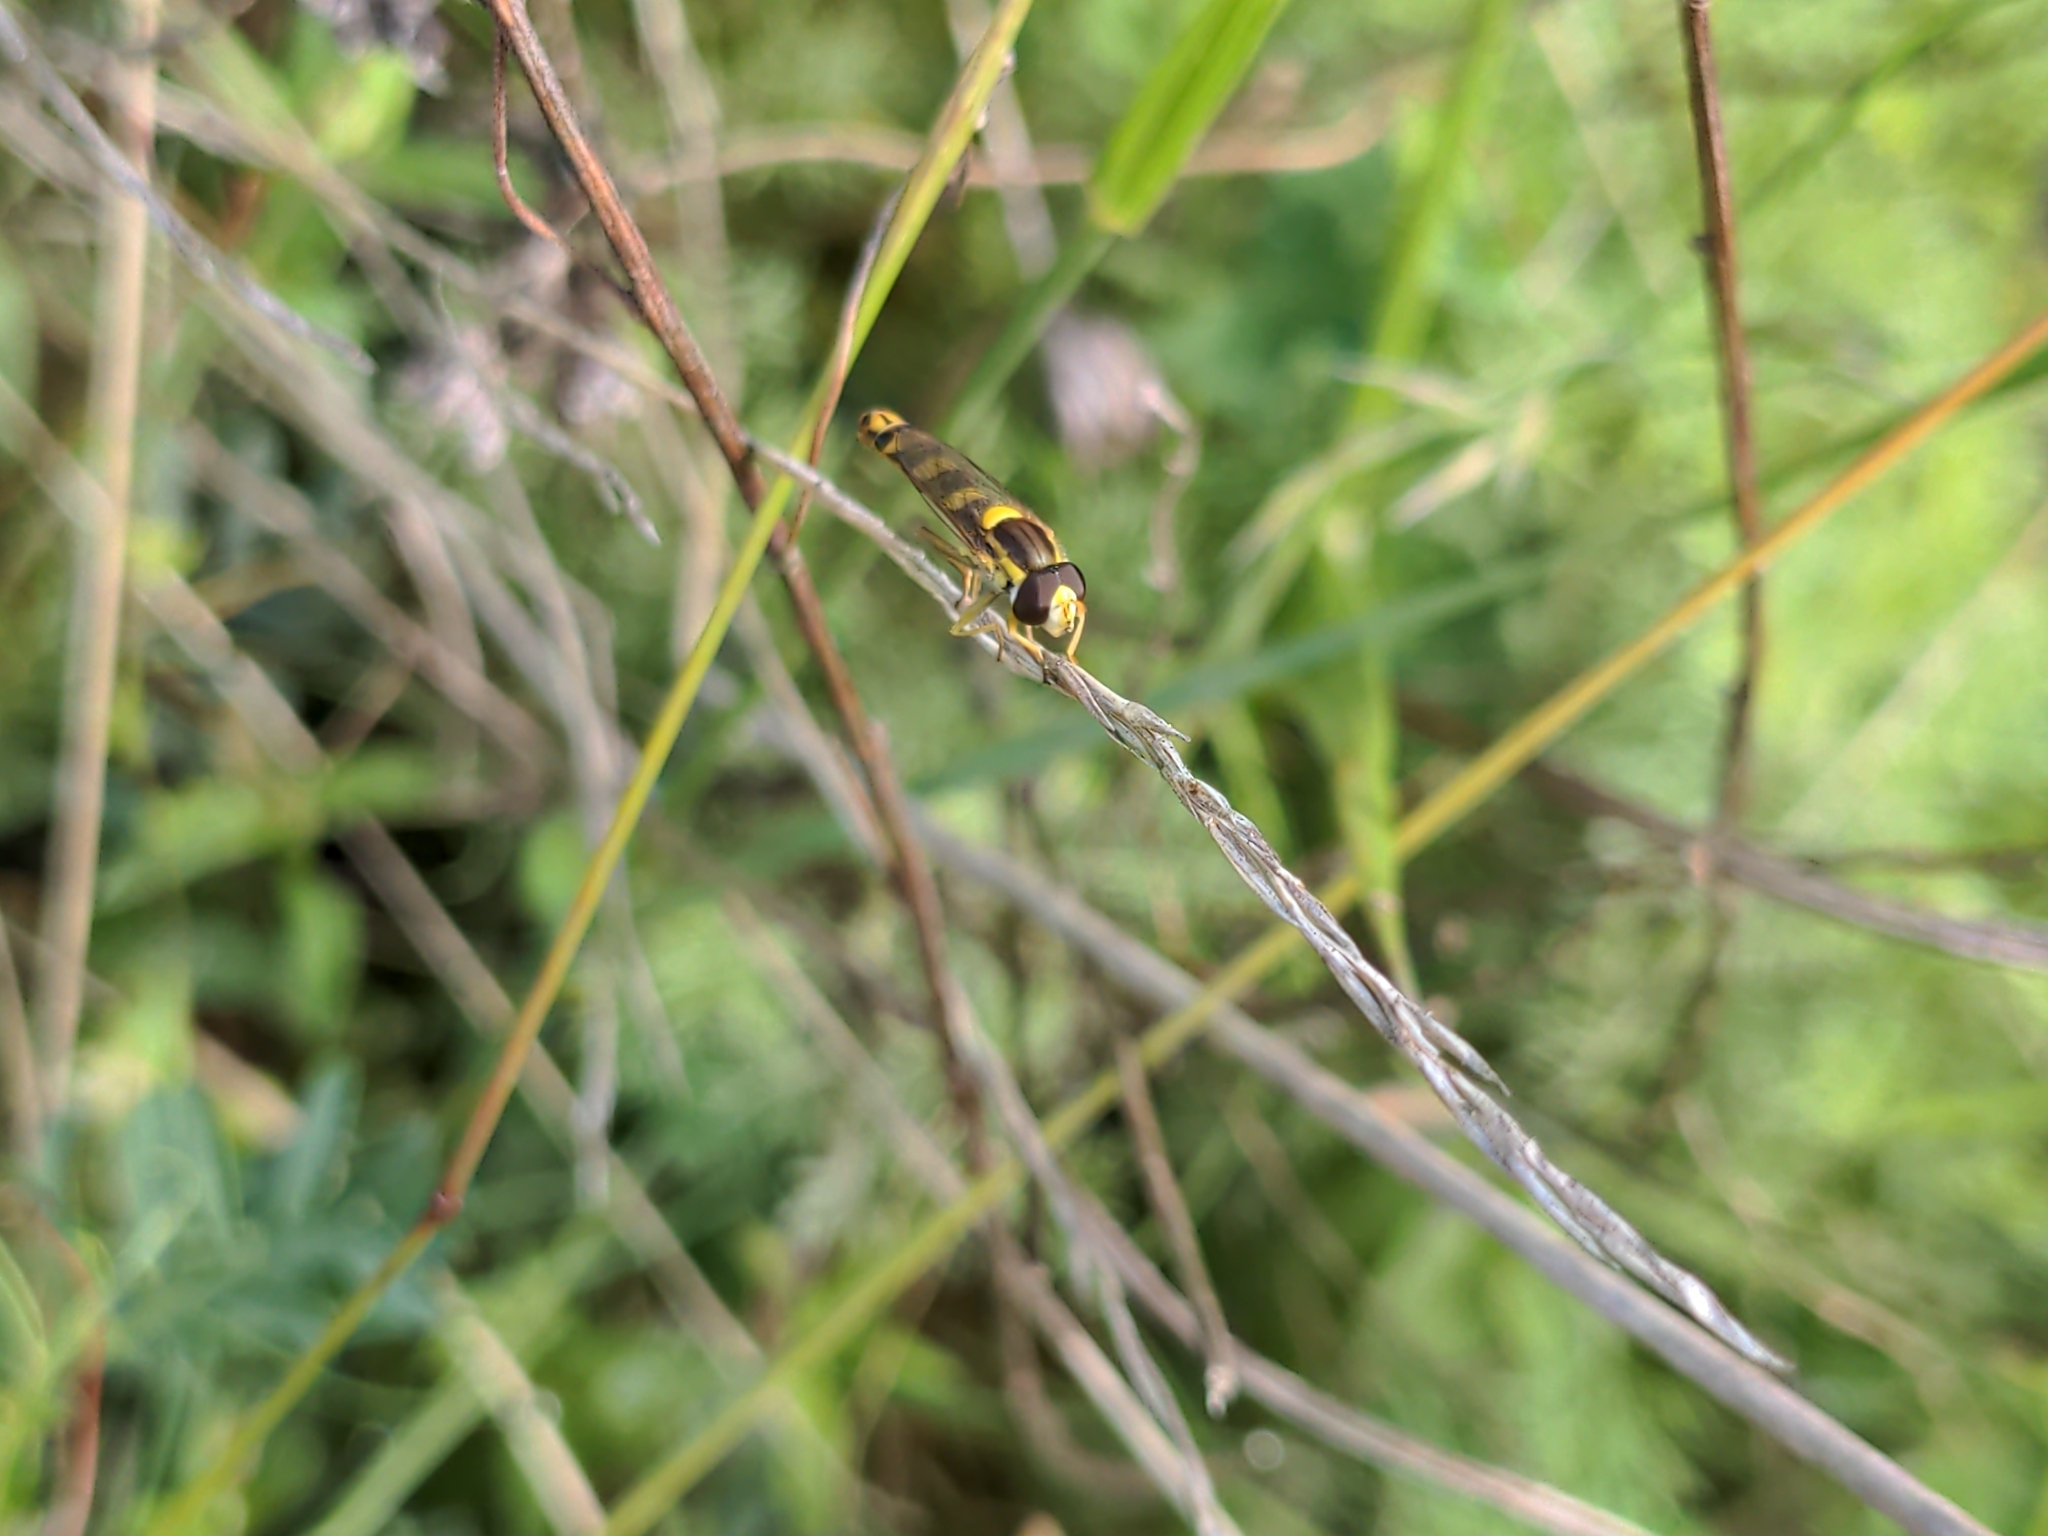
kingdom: Animalia
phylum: Arthropoda
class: Insecta
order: Diptera
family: Syrphidae
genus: Sphaerophoria
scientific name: Sphaerophoria scripta
